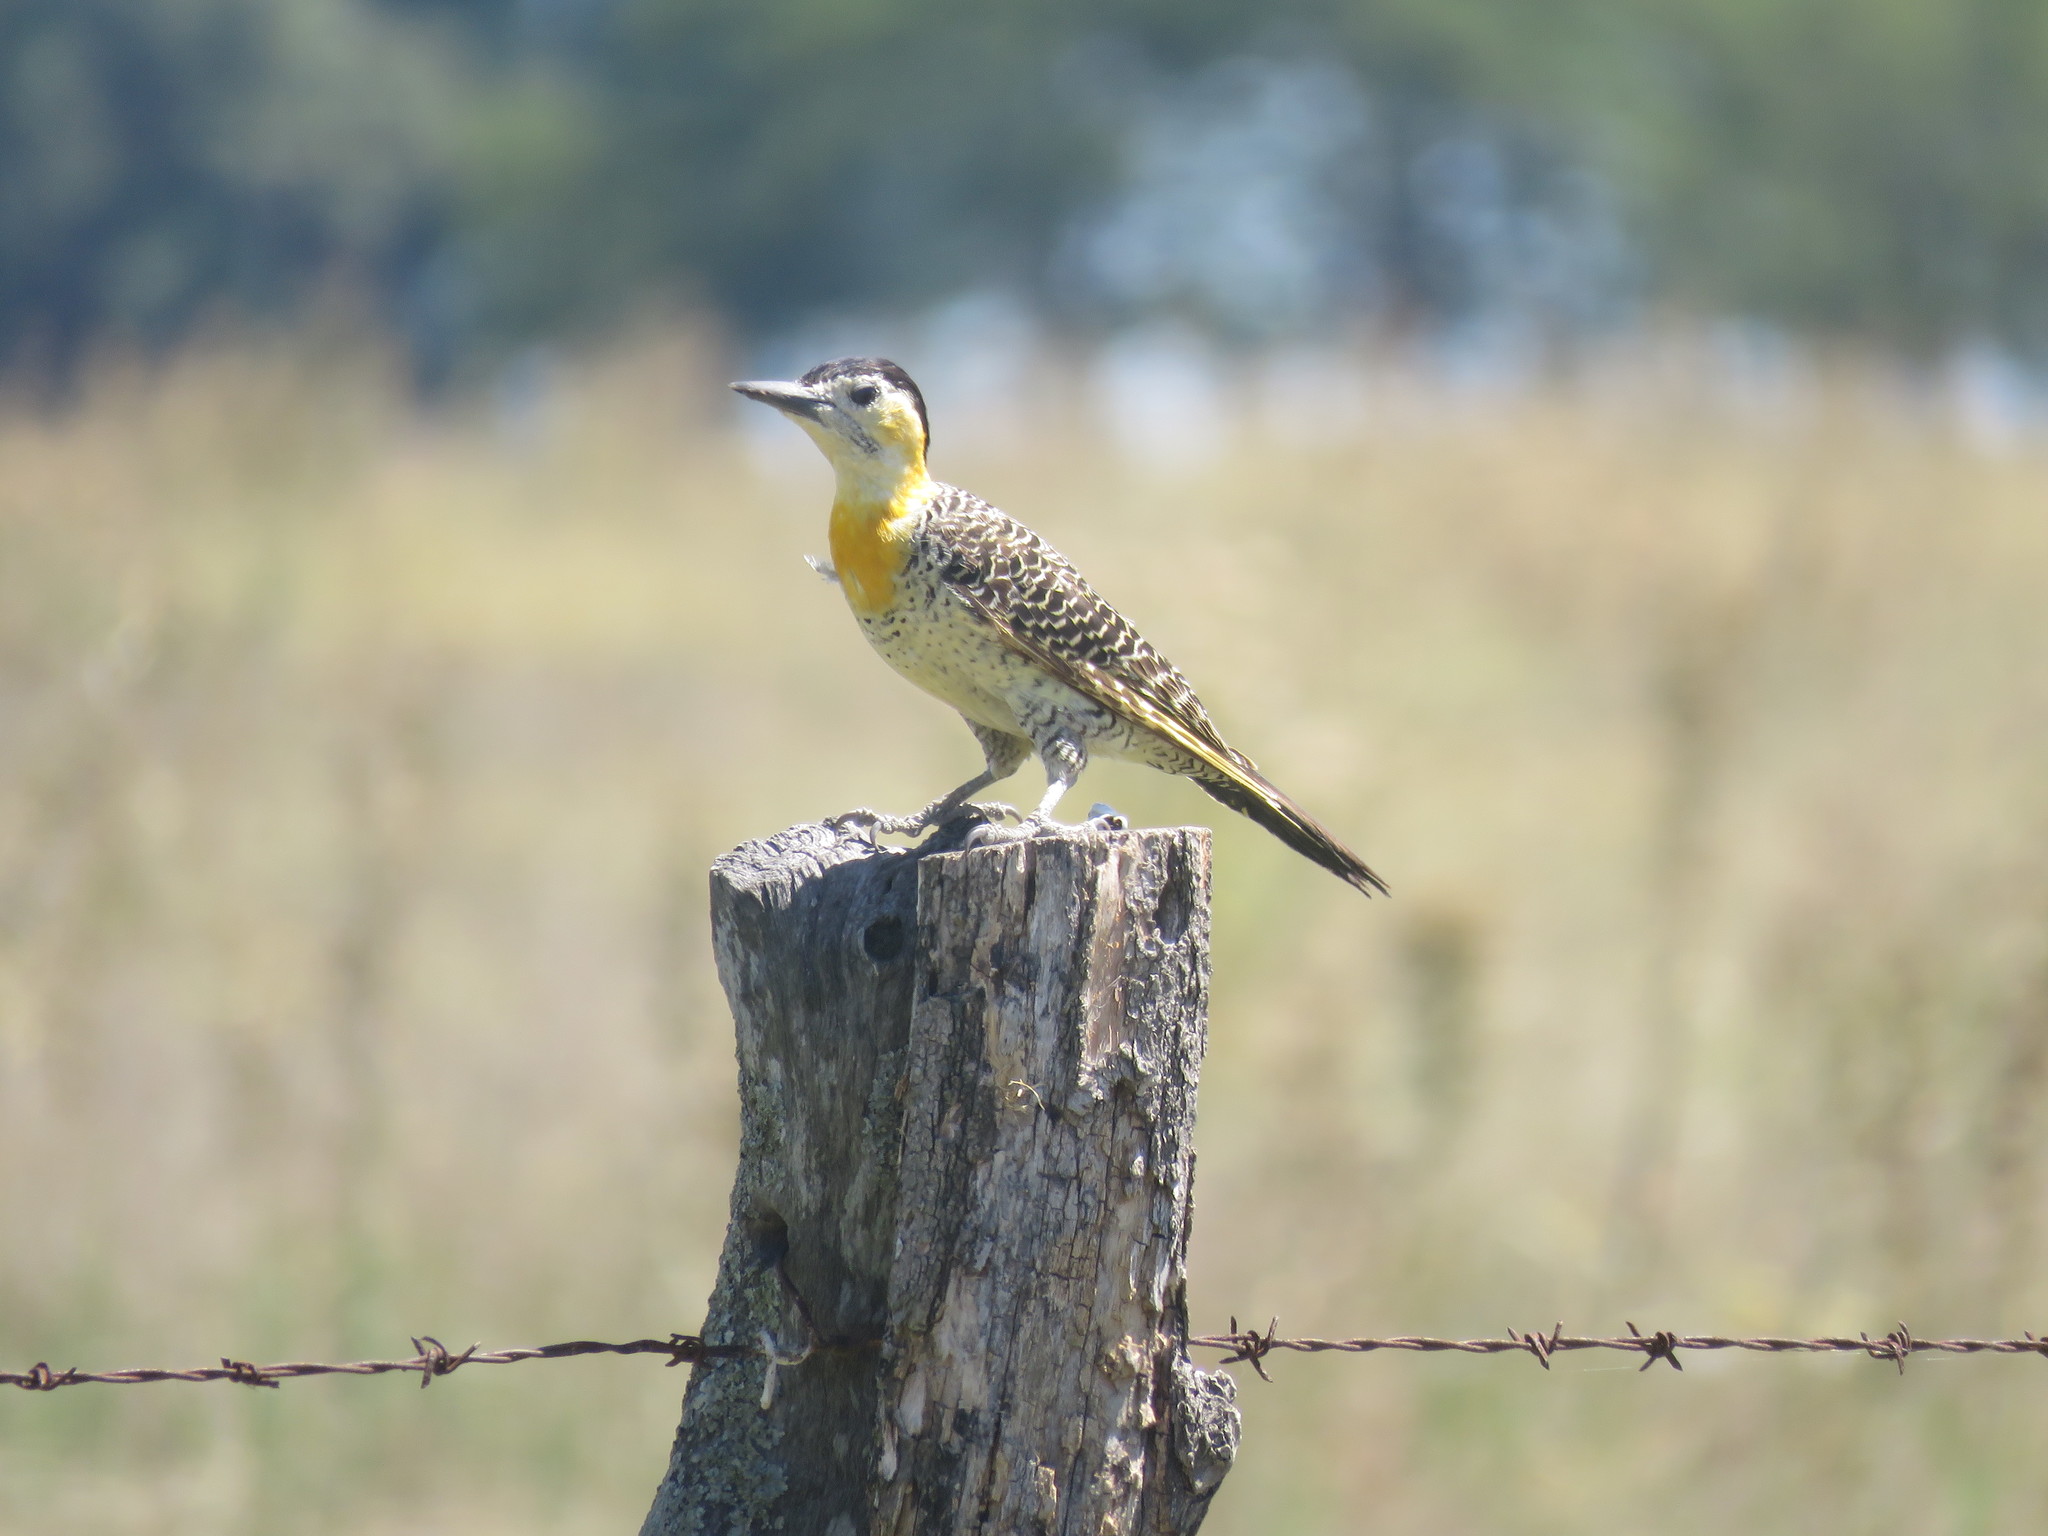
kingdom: Animalia
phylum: Chordata
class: Aves
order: Piciformes
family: Picidae
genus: Colaptes
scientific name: Colaptes campestris
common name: Campo flicker
